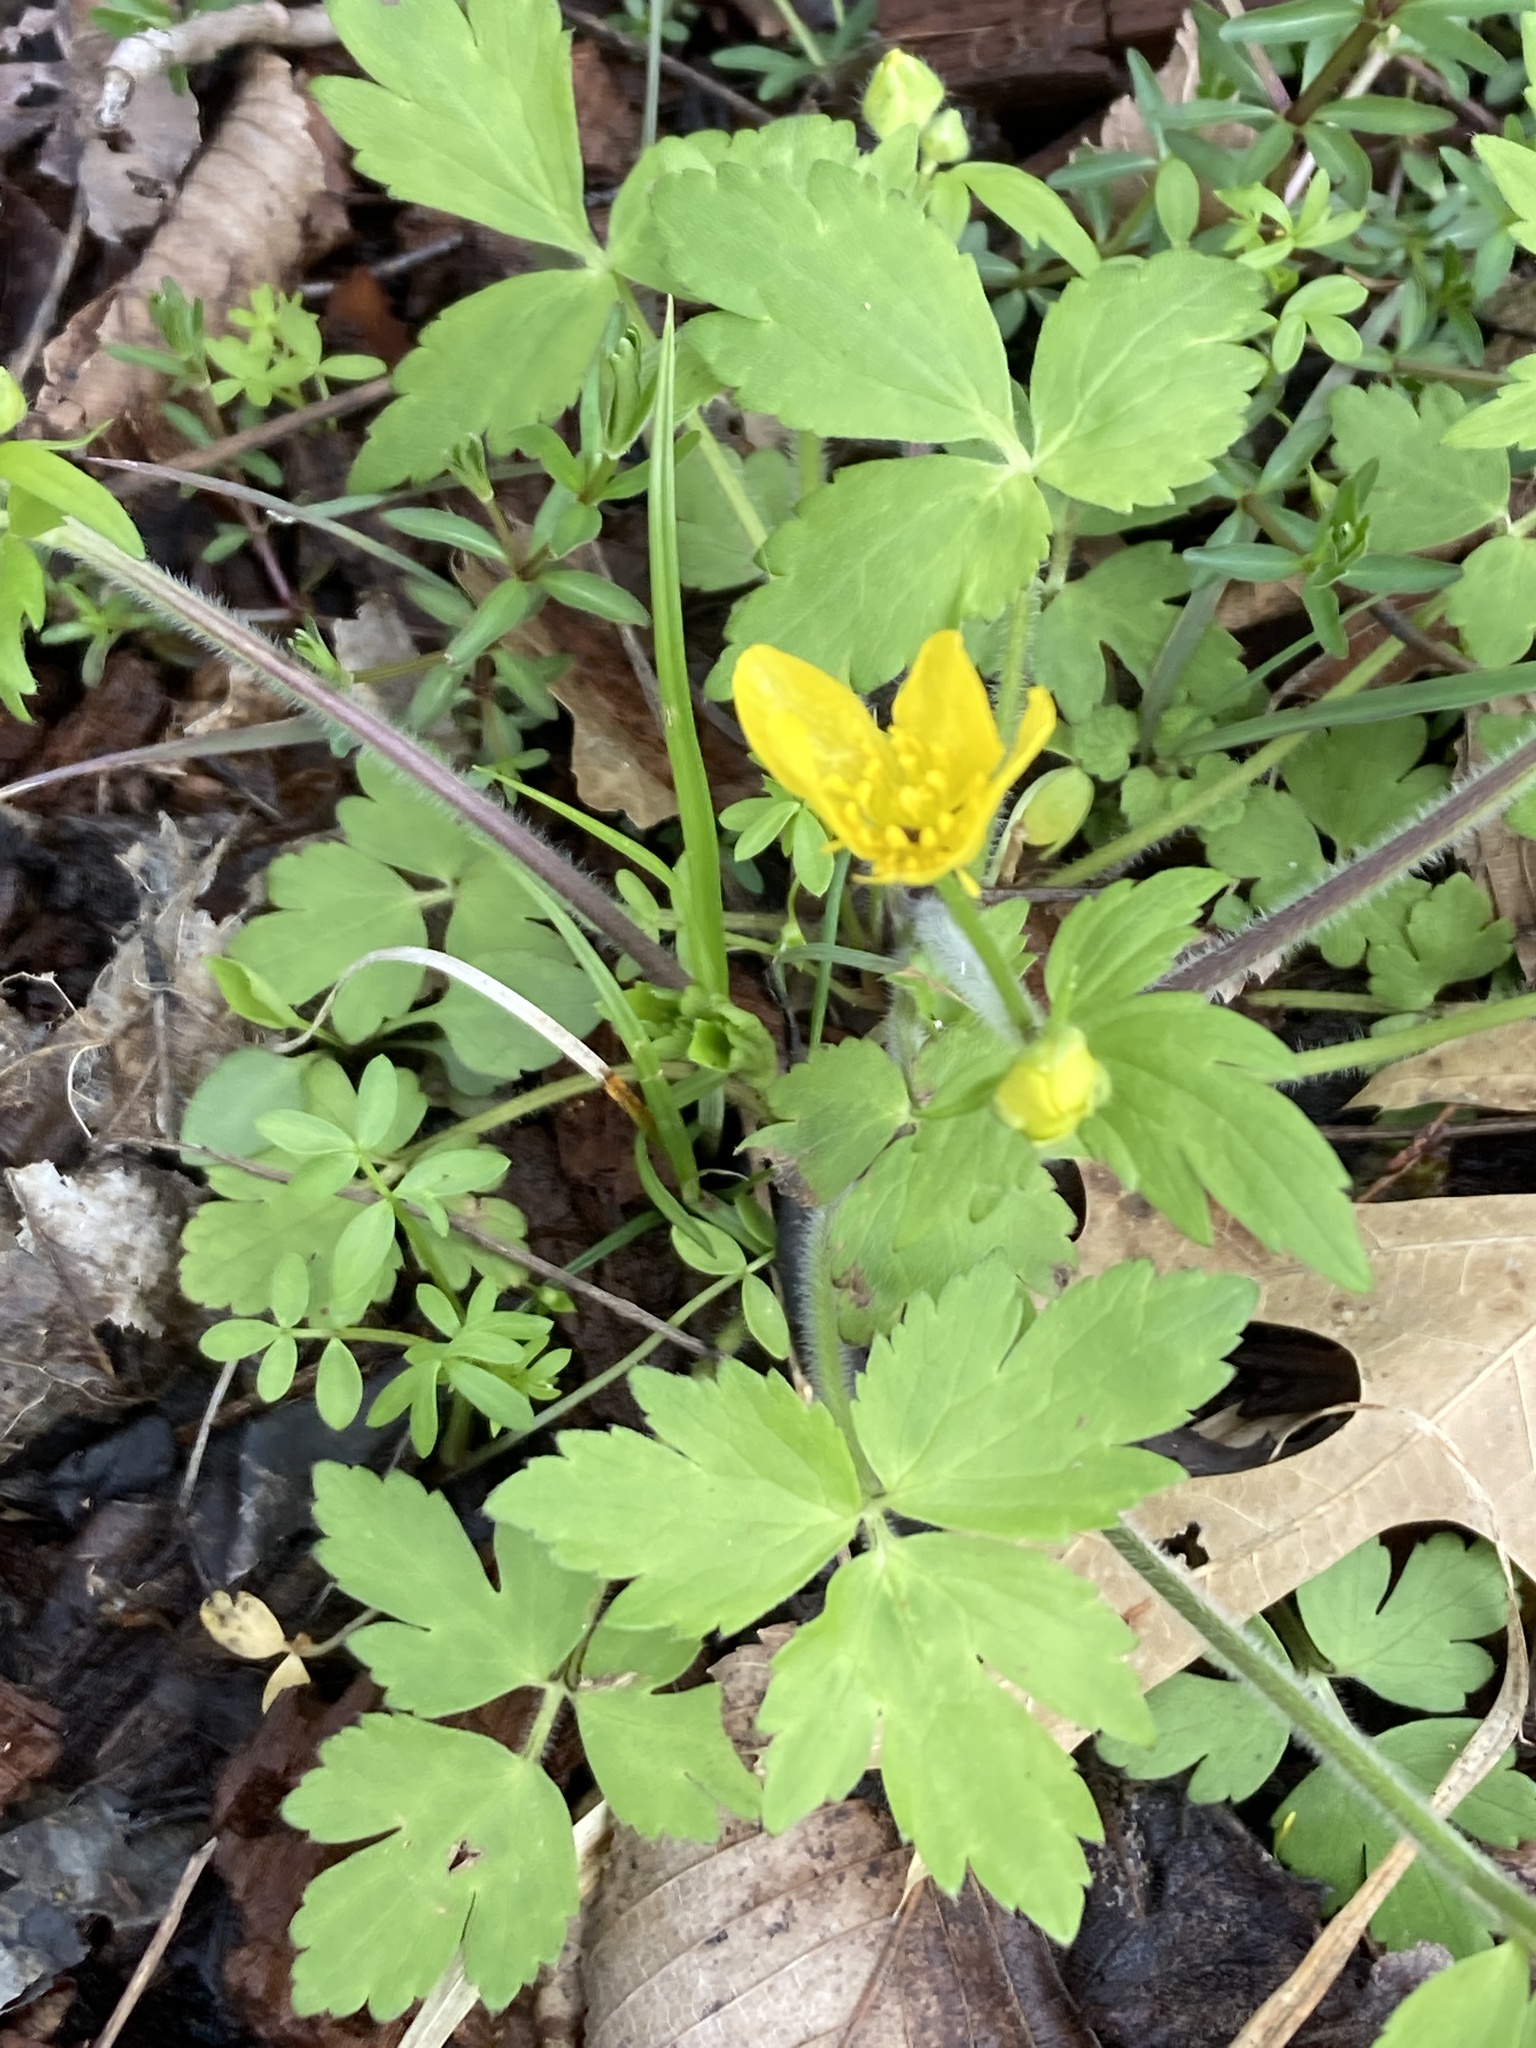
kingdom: Plantae
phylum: Tracheophyta
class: Magnoliopsida
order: Ranunculales
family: Ranunculaceae
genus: Ranunculus
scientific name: Ranunculus hispidus
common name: Bristly buttercup
